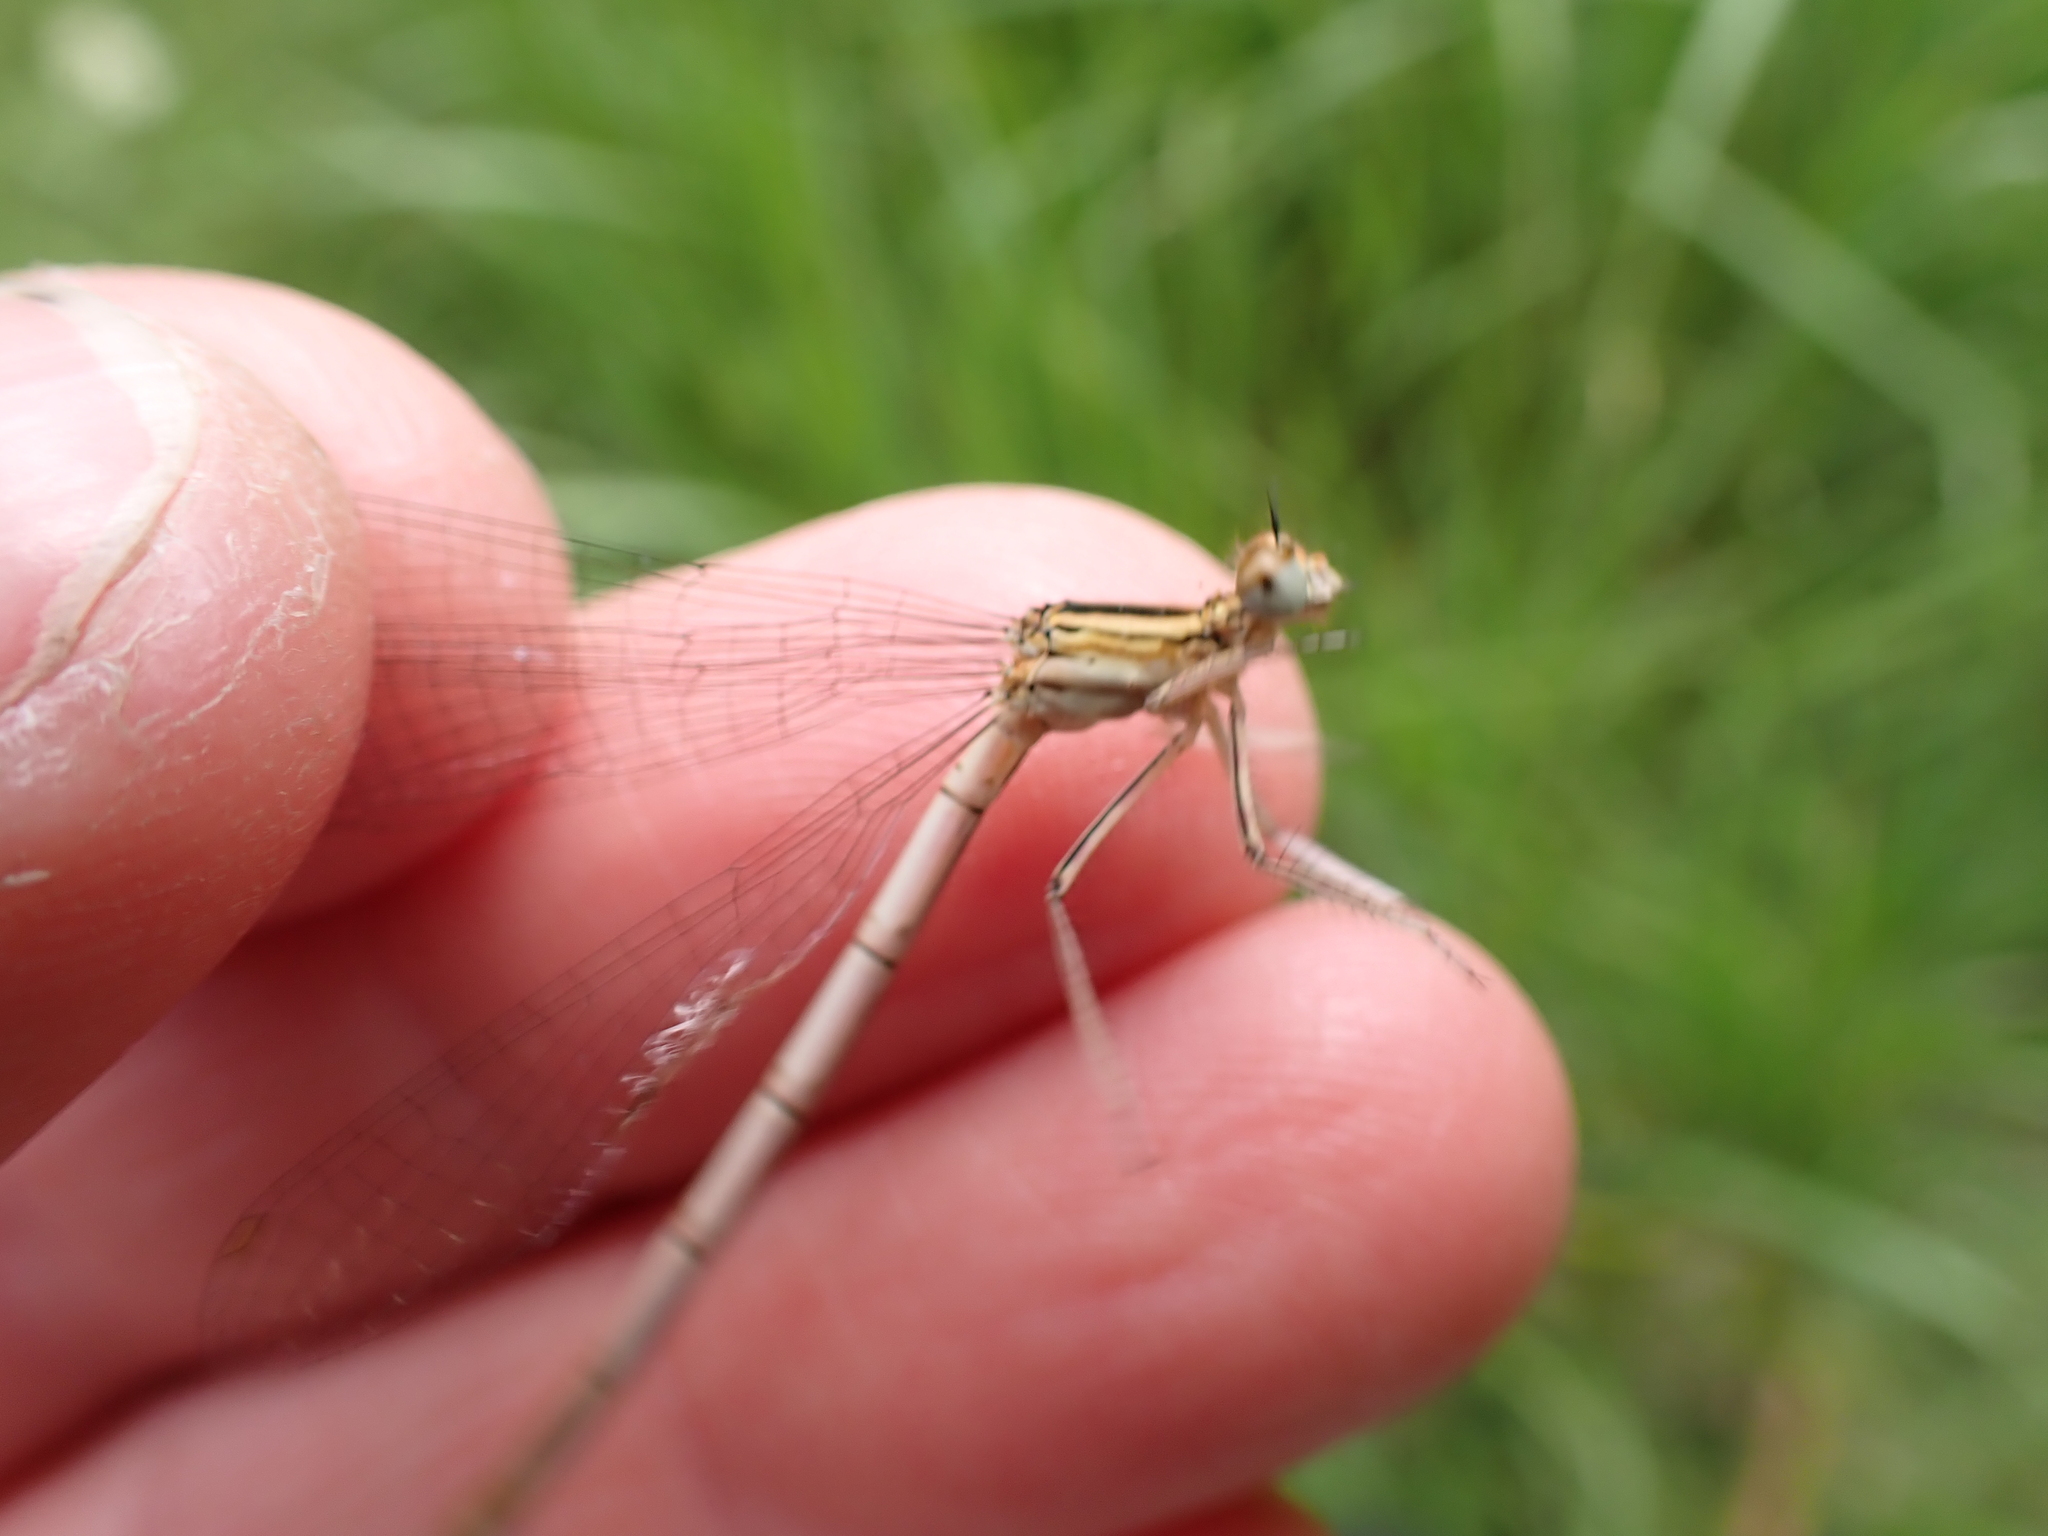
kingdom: Animalia
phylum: Arthropoda
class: Insecta
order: Odonata
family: Platycnemididae
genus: Platycnemis
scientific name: Platycnemis pennipes
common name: White-legged damselfly
